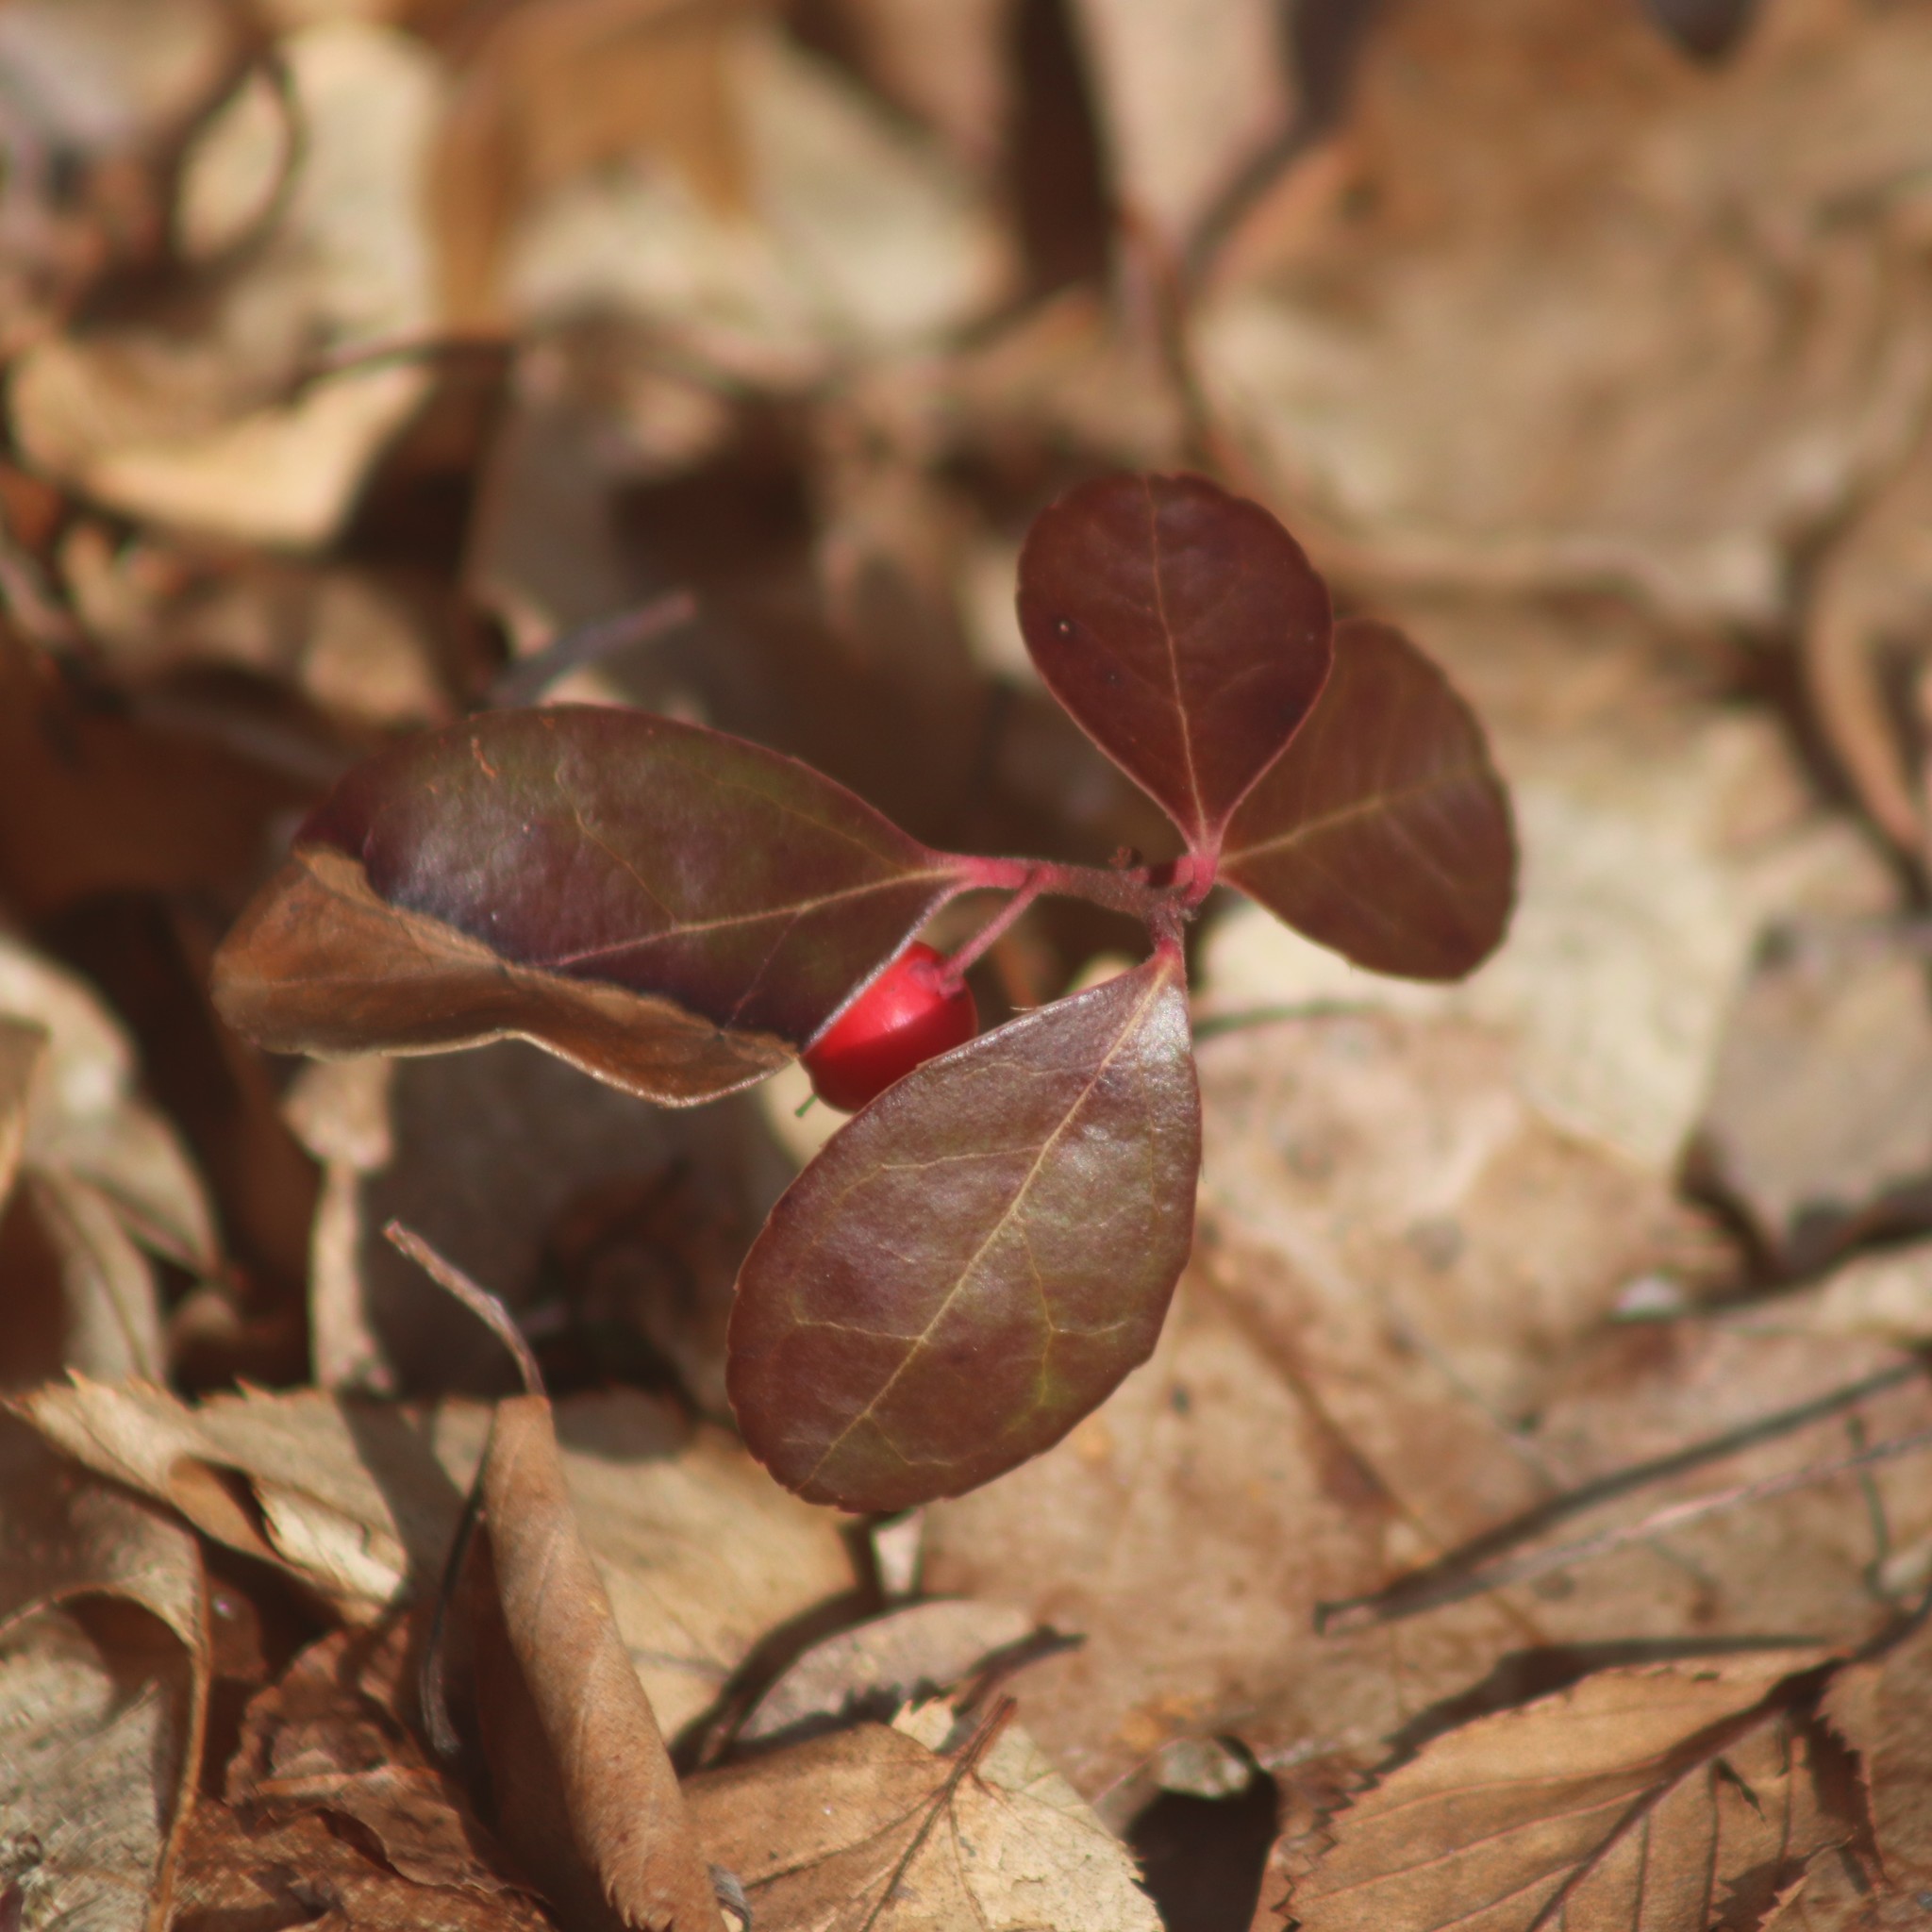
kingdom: Plantae
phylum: Tracheophyta
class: Magnoliopsida
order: Ericales
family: Ericaceae
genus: Gaultheria
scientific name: Gaultheria procumbens
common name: Checkerberry
